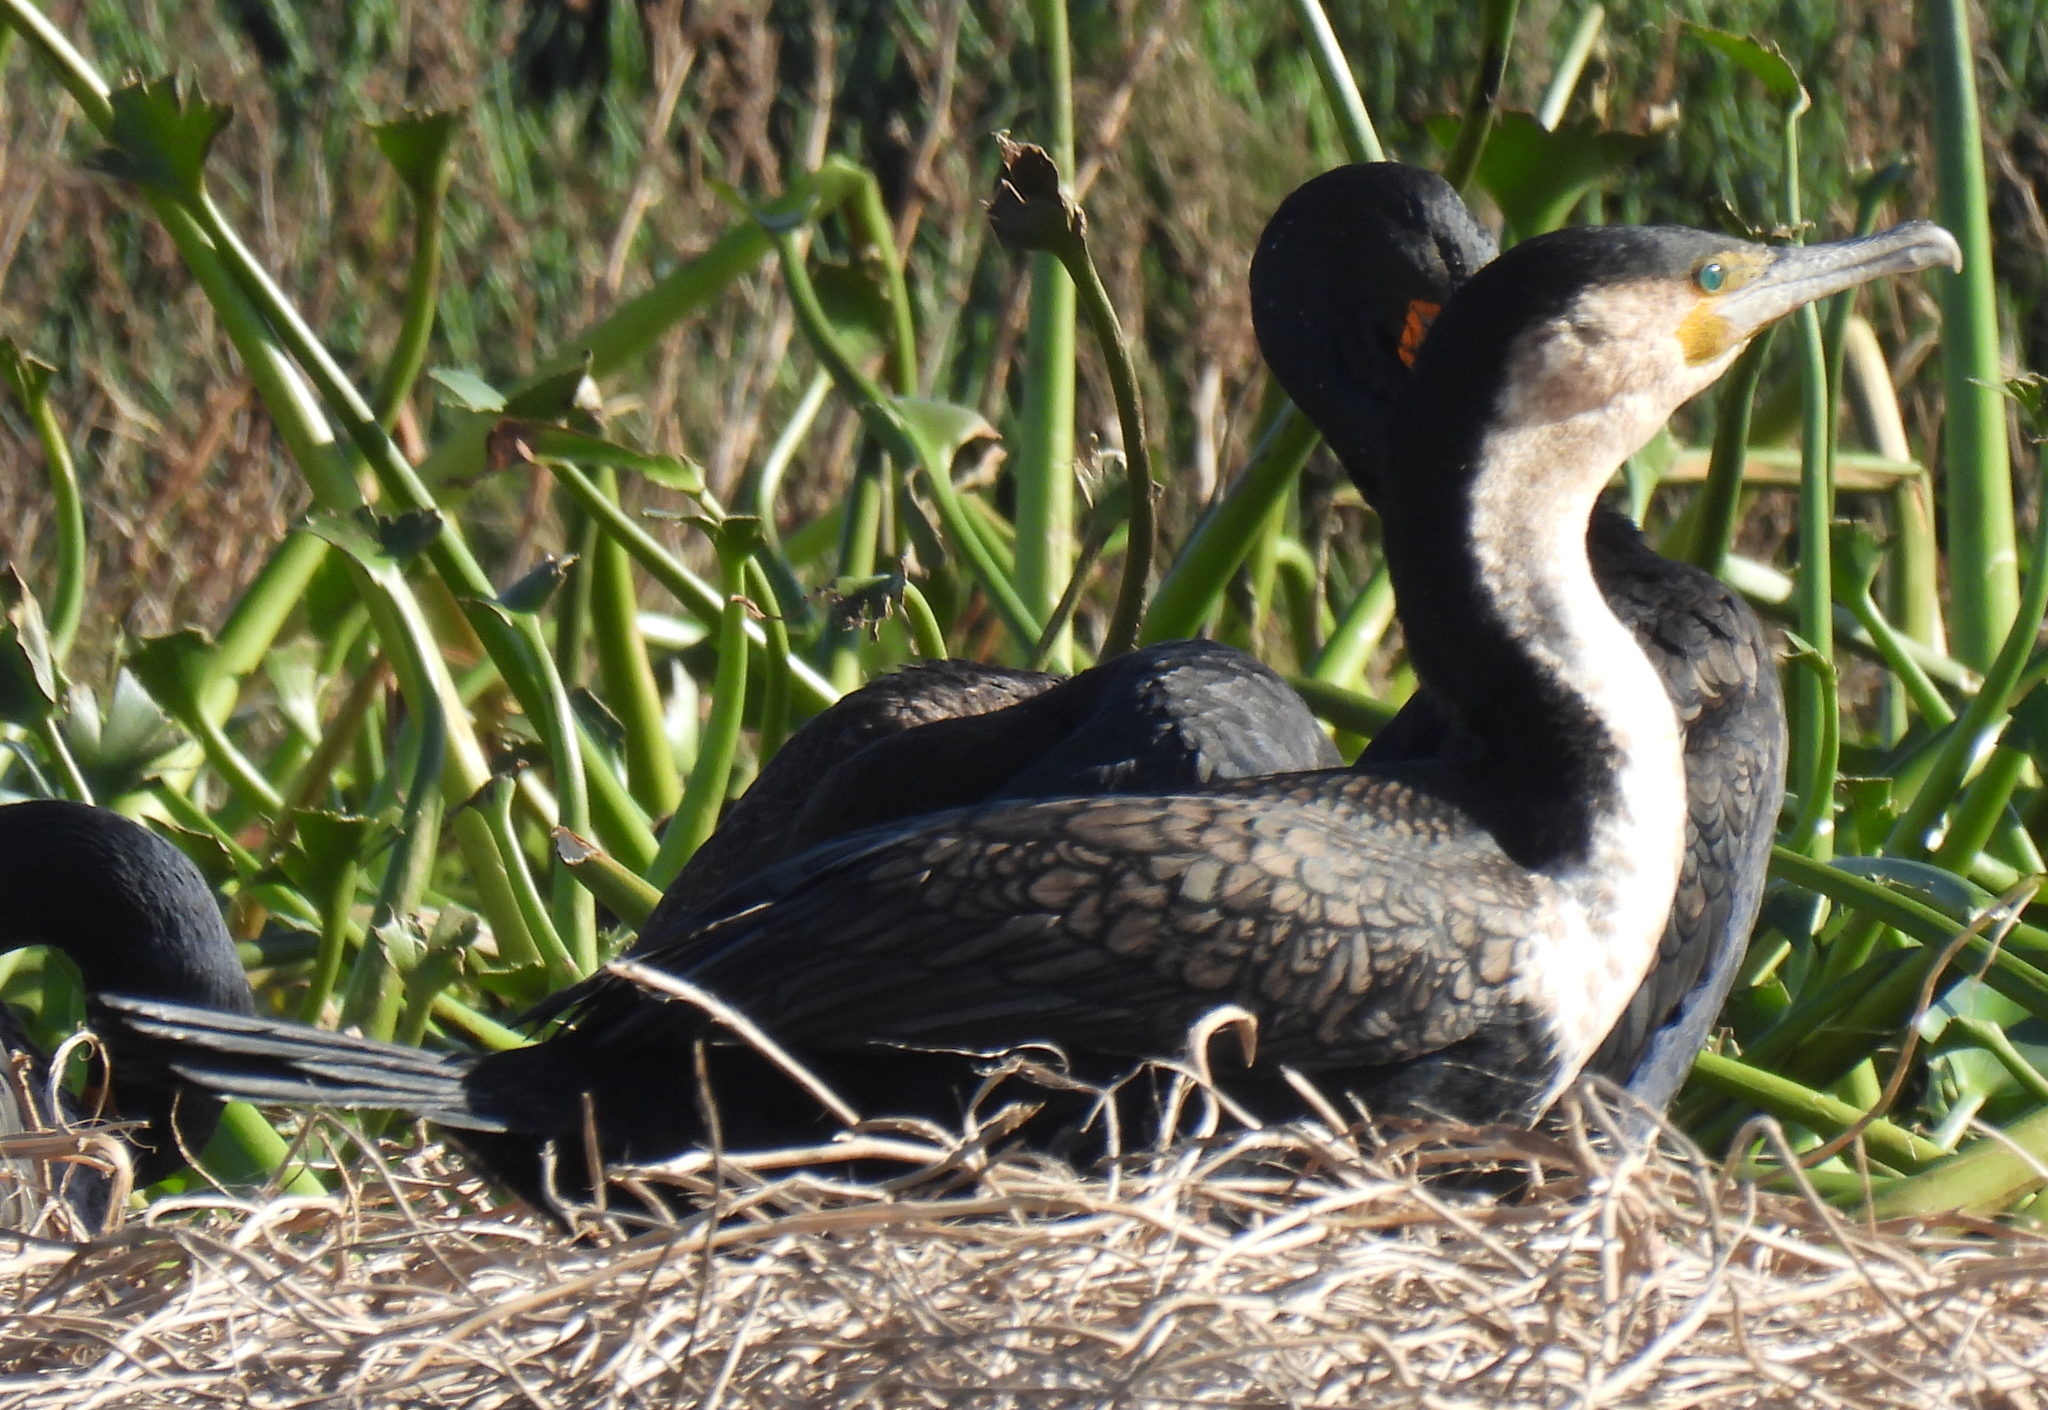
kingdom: Animalia
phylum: Chordata
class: Aves
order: Suliformes
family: Phalacrocoracidae
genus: Phalacrocorax
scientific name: Phalacrocorax carbo
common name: Great cormorant
